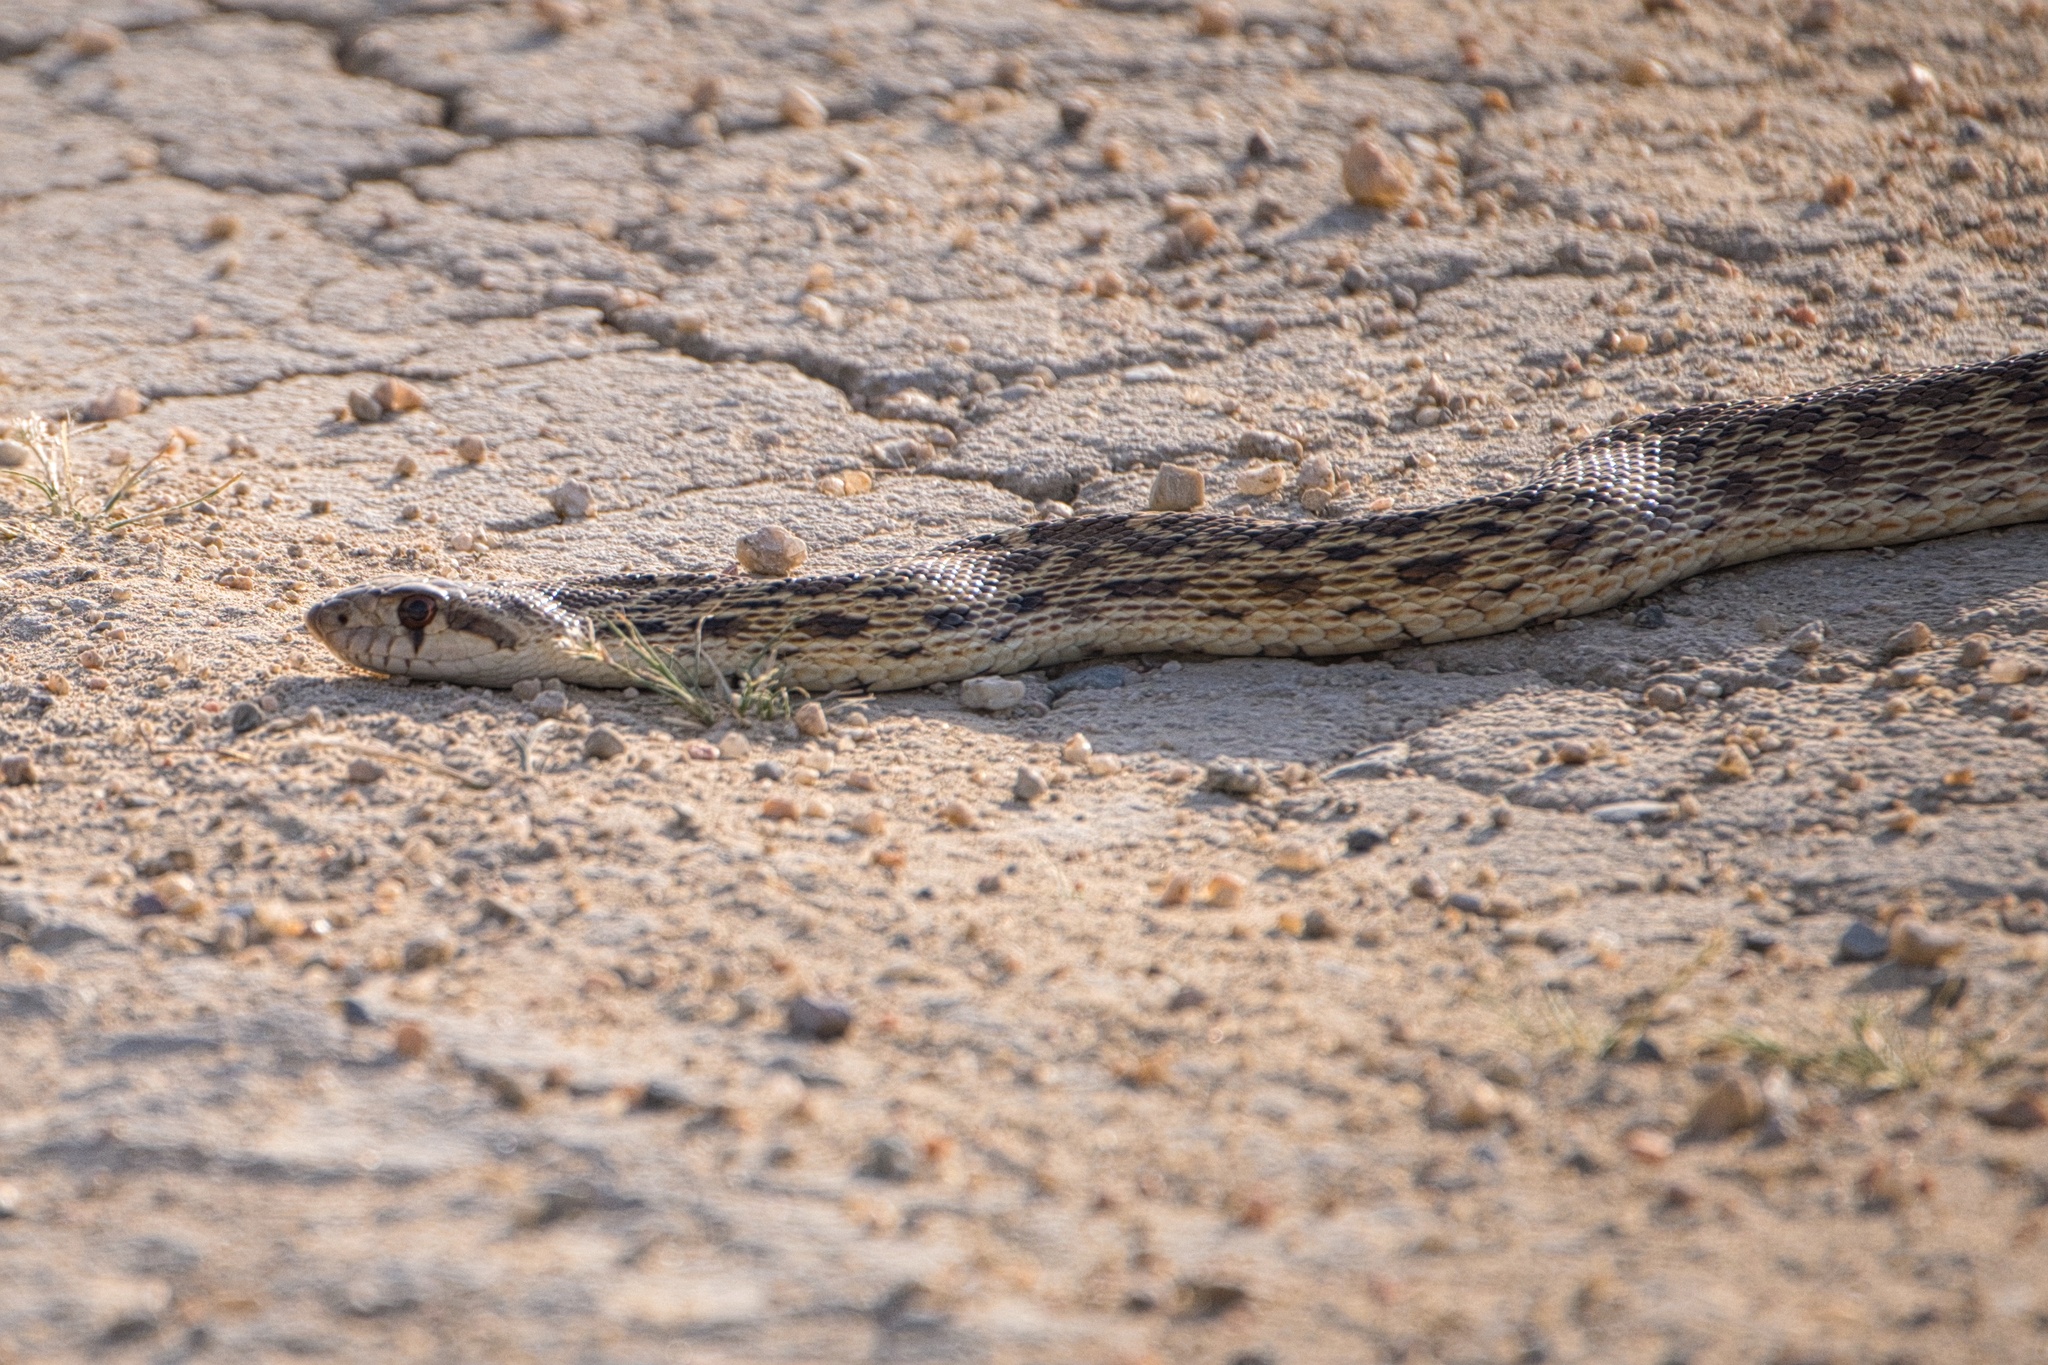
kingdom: Animalia
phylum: Chordata
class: Squamata
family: Colubridae
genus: Pituophis
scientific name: Pituophis catenifer
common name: Gopher snake
